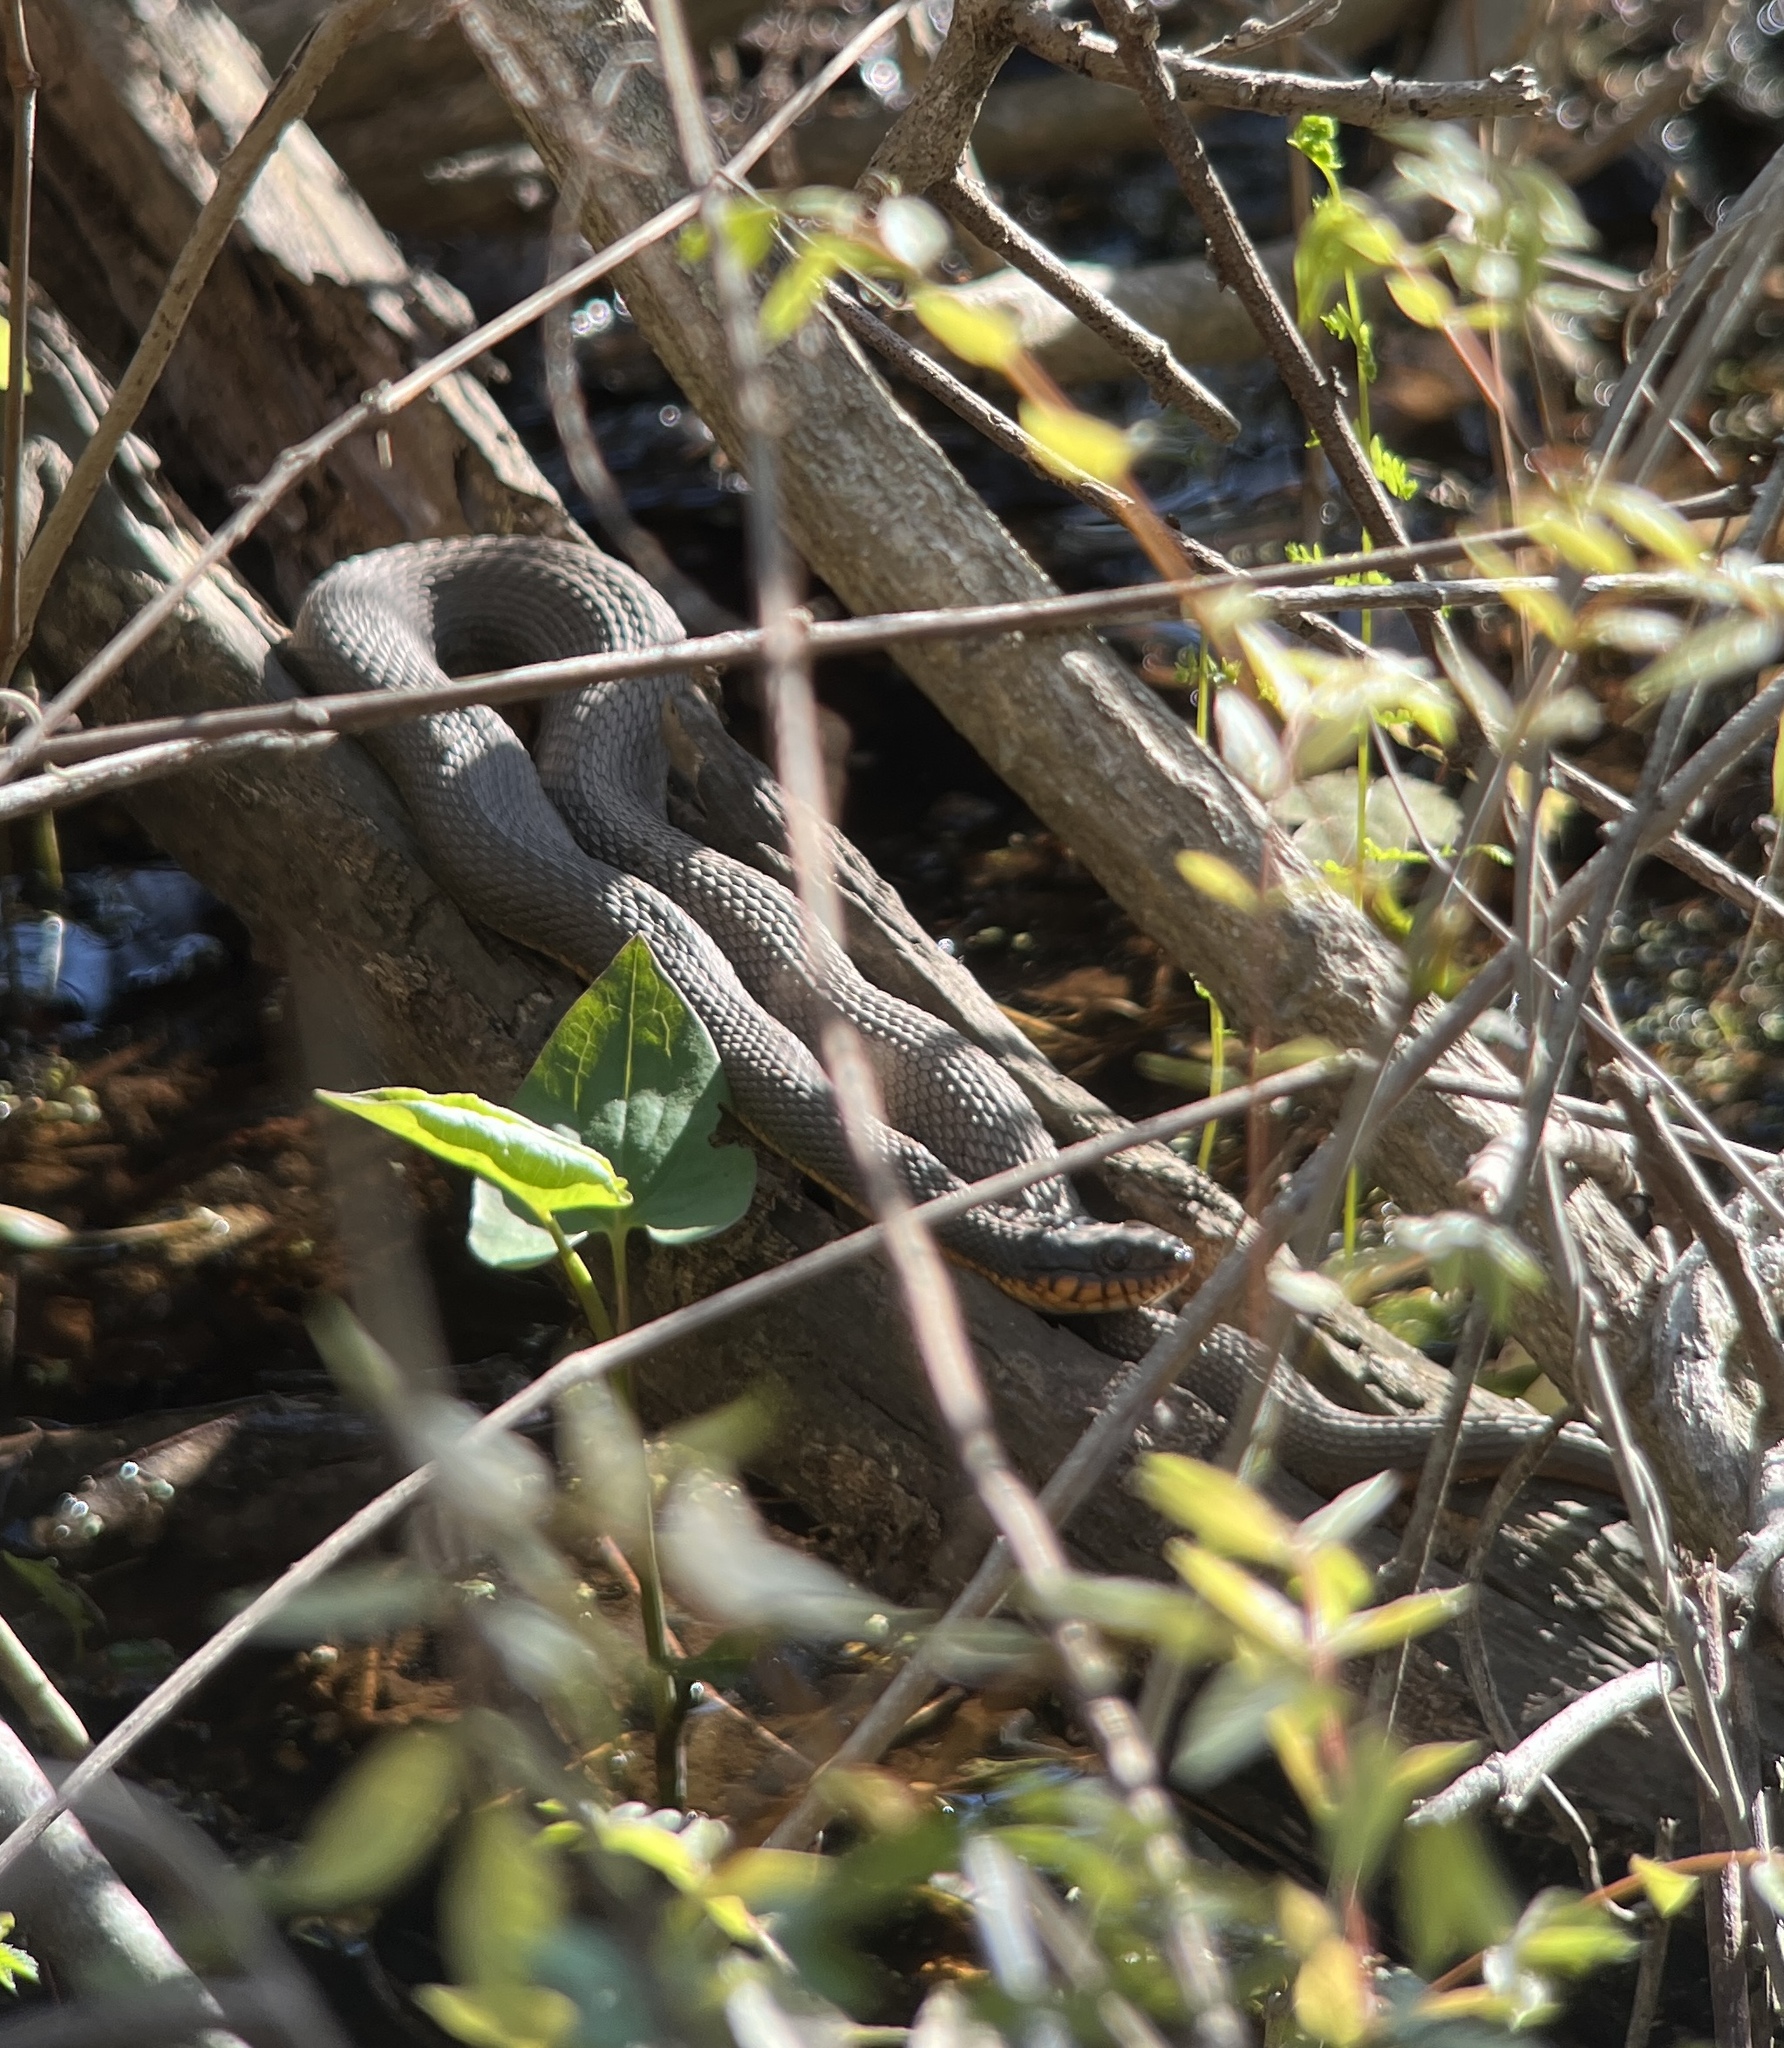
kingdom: Animalia
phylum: Chordata
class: Squamata
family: Colubridae
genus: Nerodia
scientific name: Nerodia erythrogaster
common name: Plainbelly water snake
